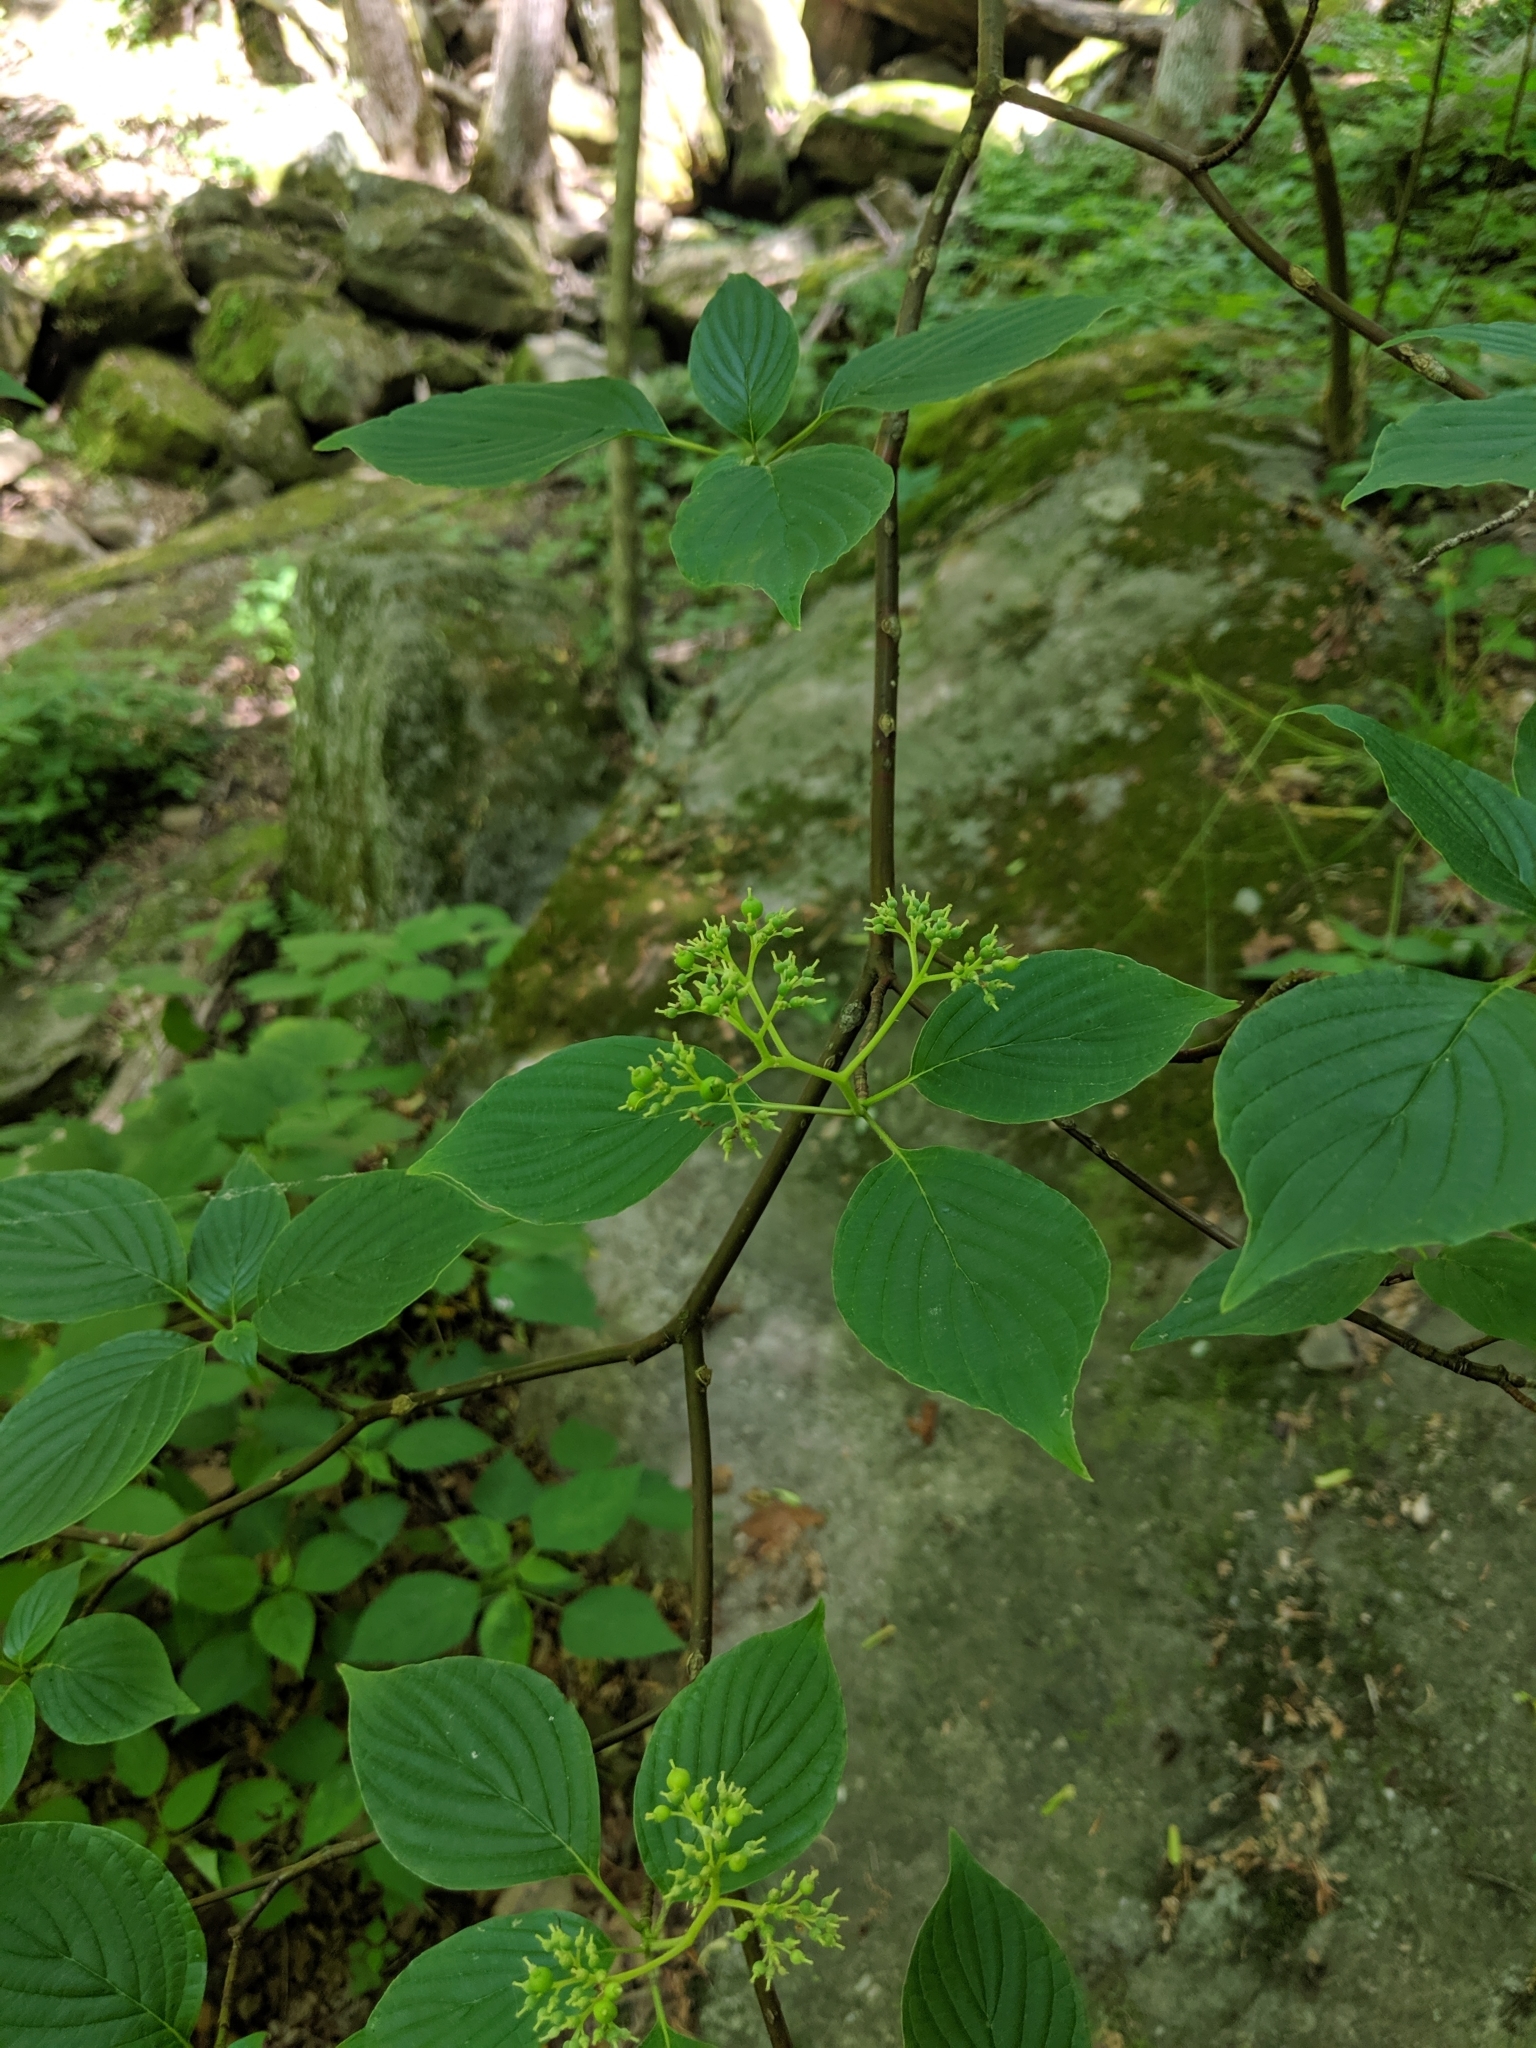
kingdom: Plantae
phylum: Tracheophyta
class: Magnoliopsida
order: Cornales
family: Cornaceae
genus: Cornus
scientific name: Cornus alternifolia
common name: Pagoda dogwood
